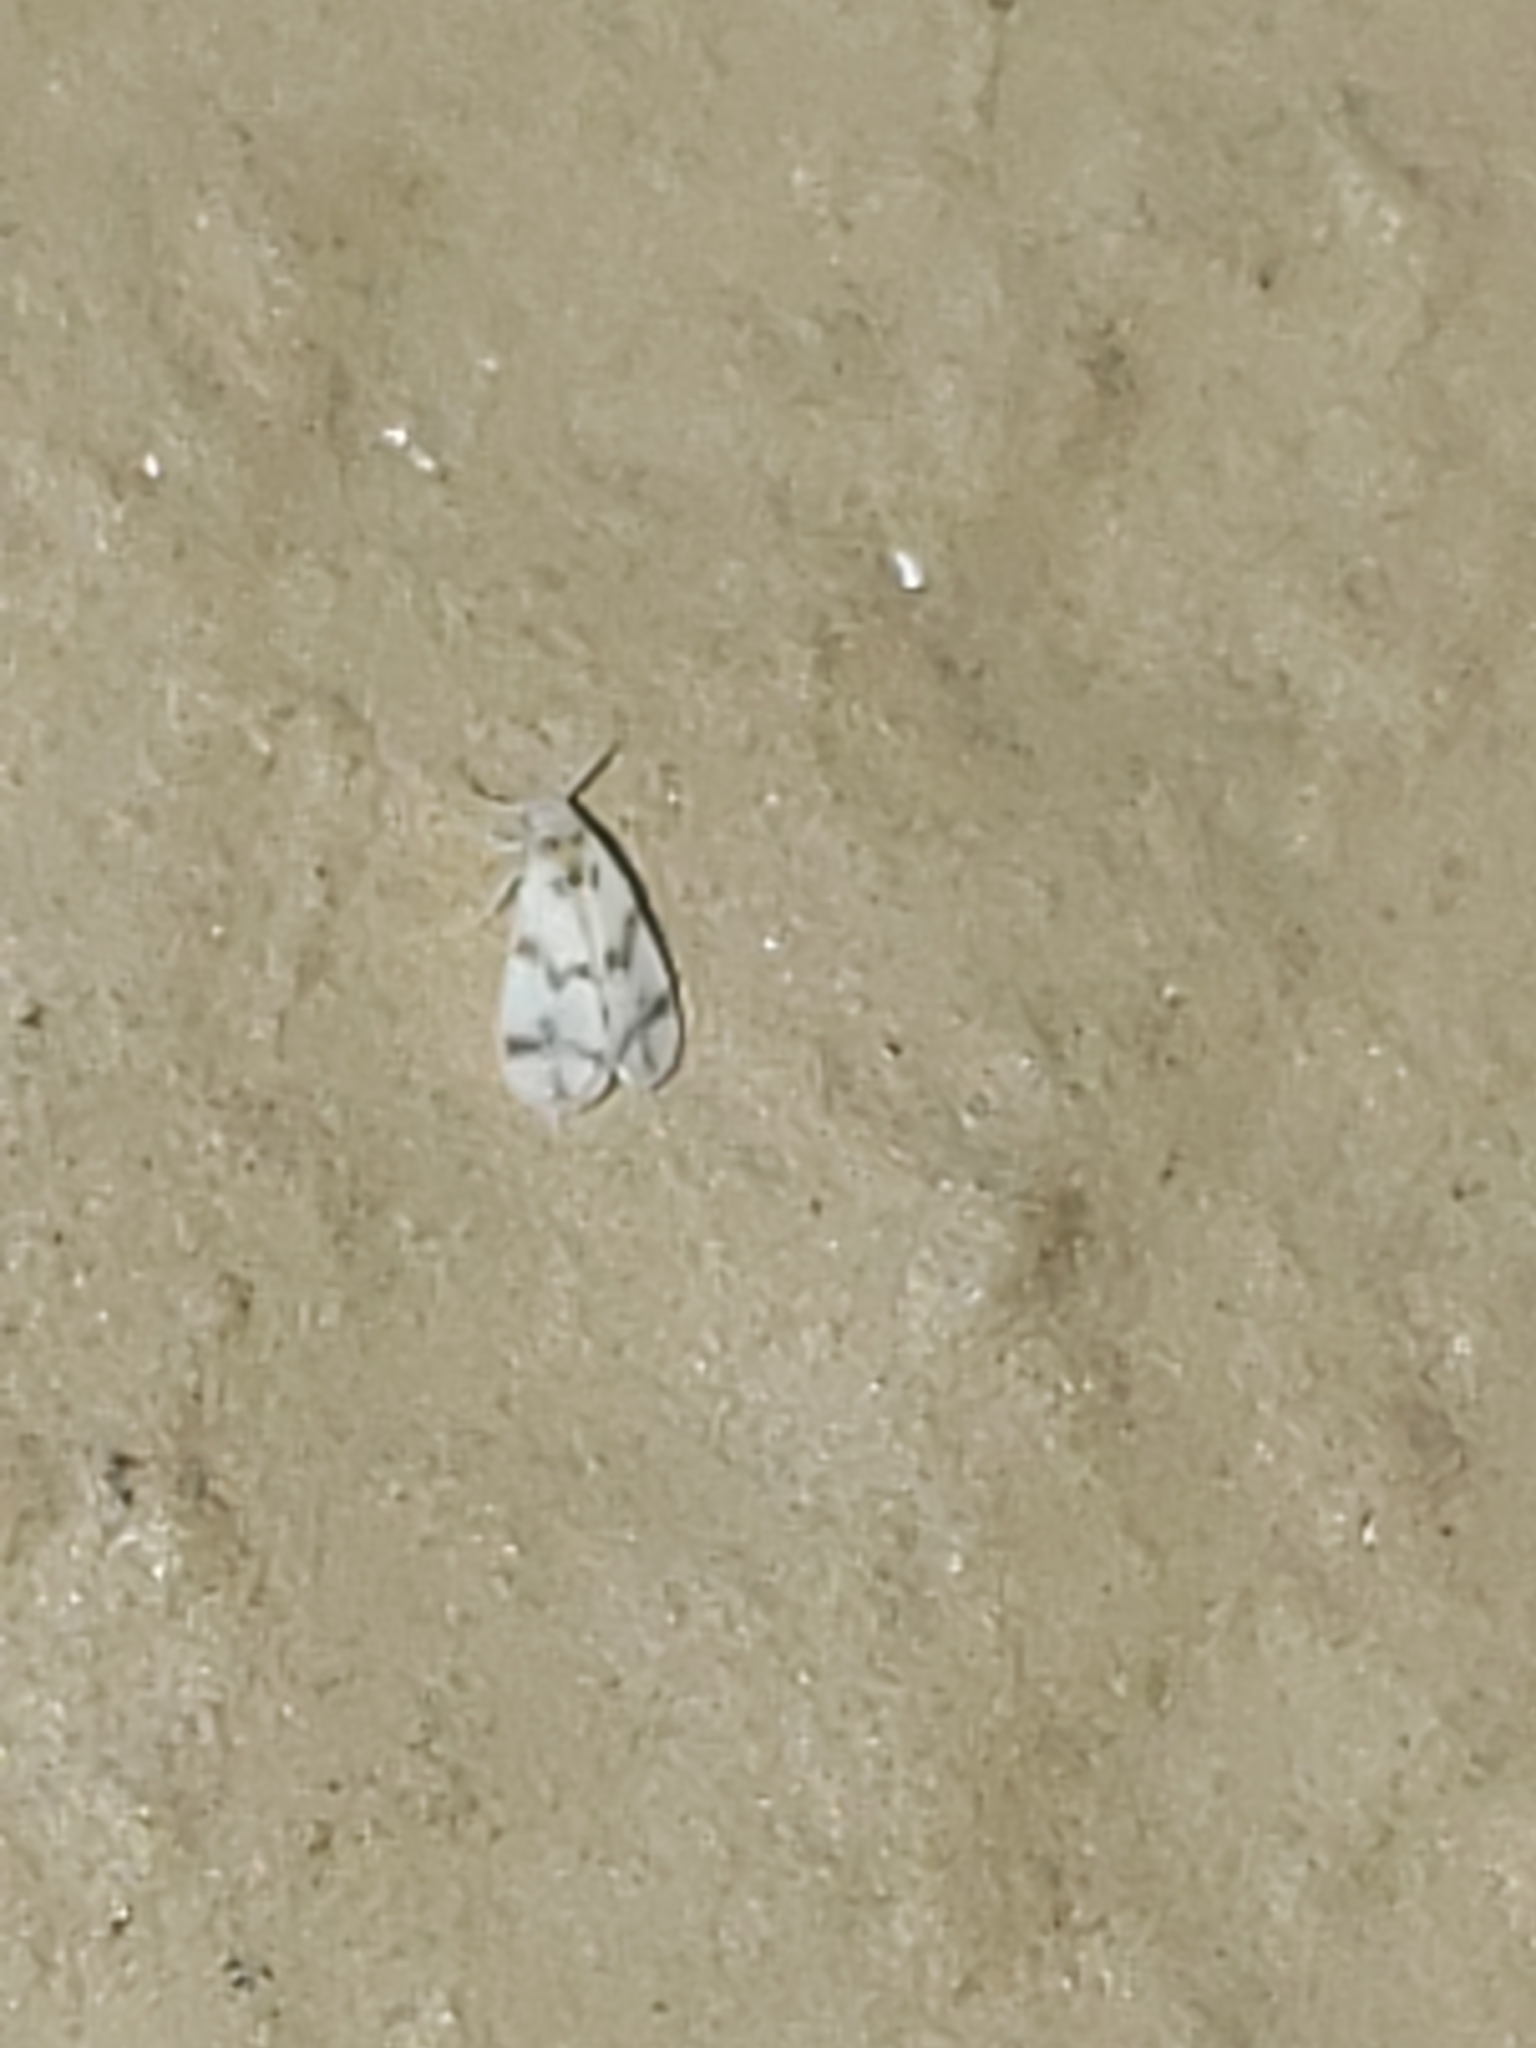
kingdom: Animalia
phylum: Arthropoda
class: Insecta
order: Hemiptera
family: Aleyrodidae
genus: Tetraleurodes
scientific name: Tetraleurodes mori
